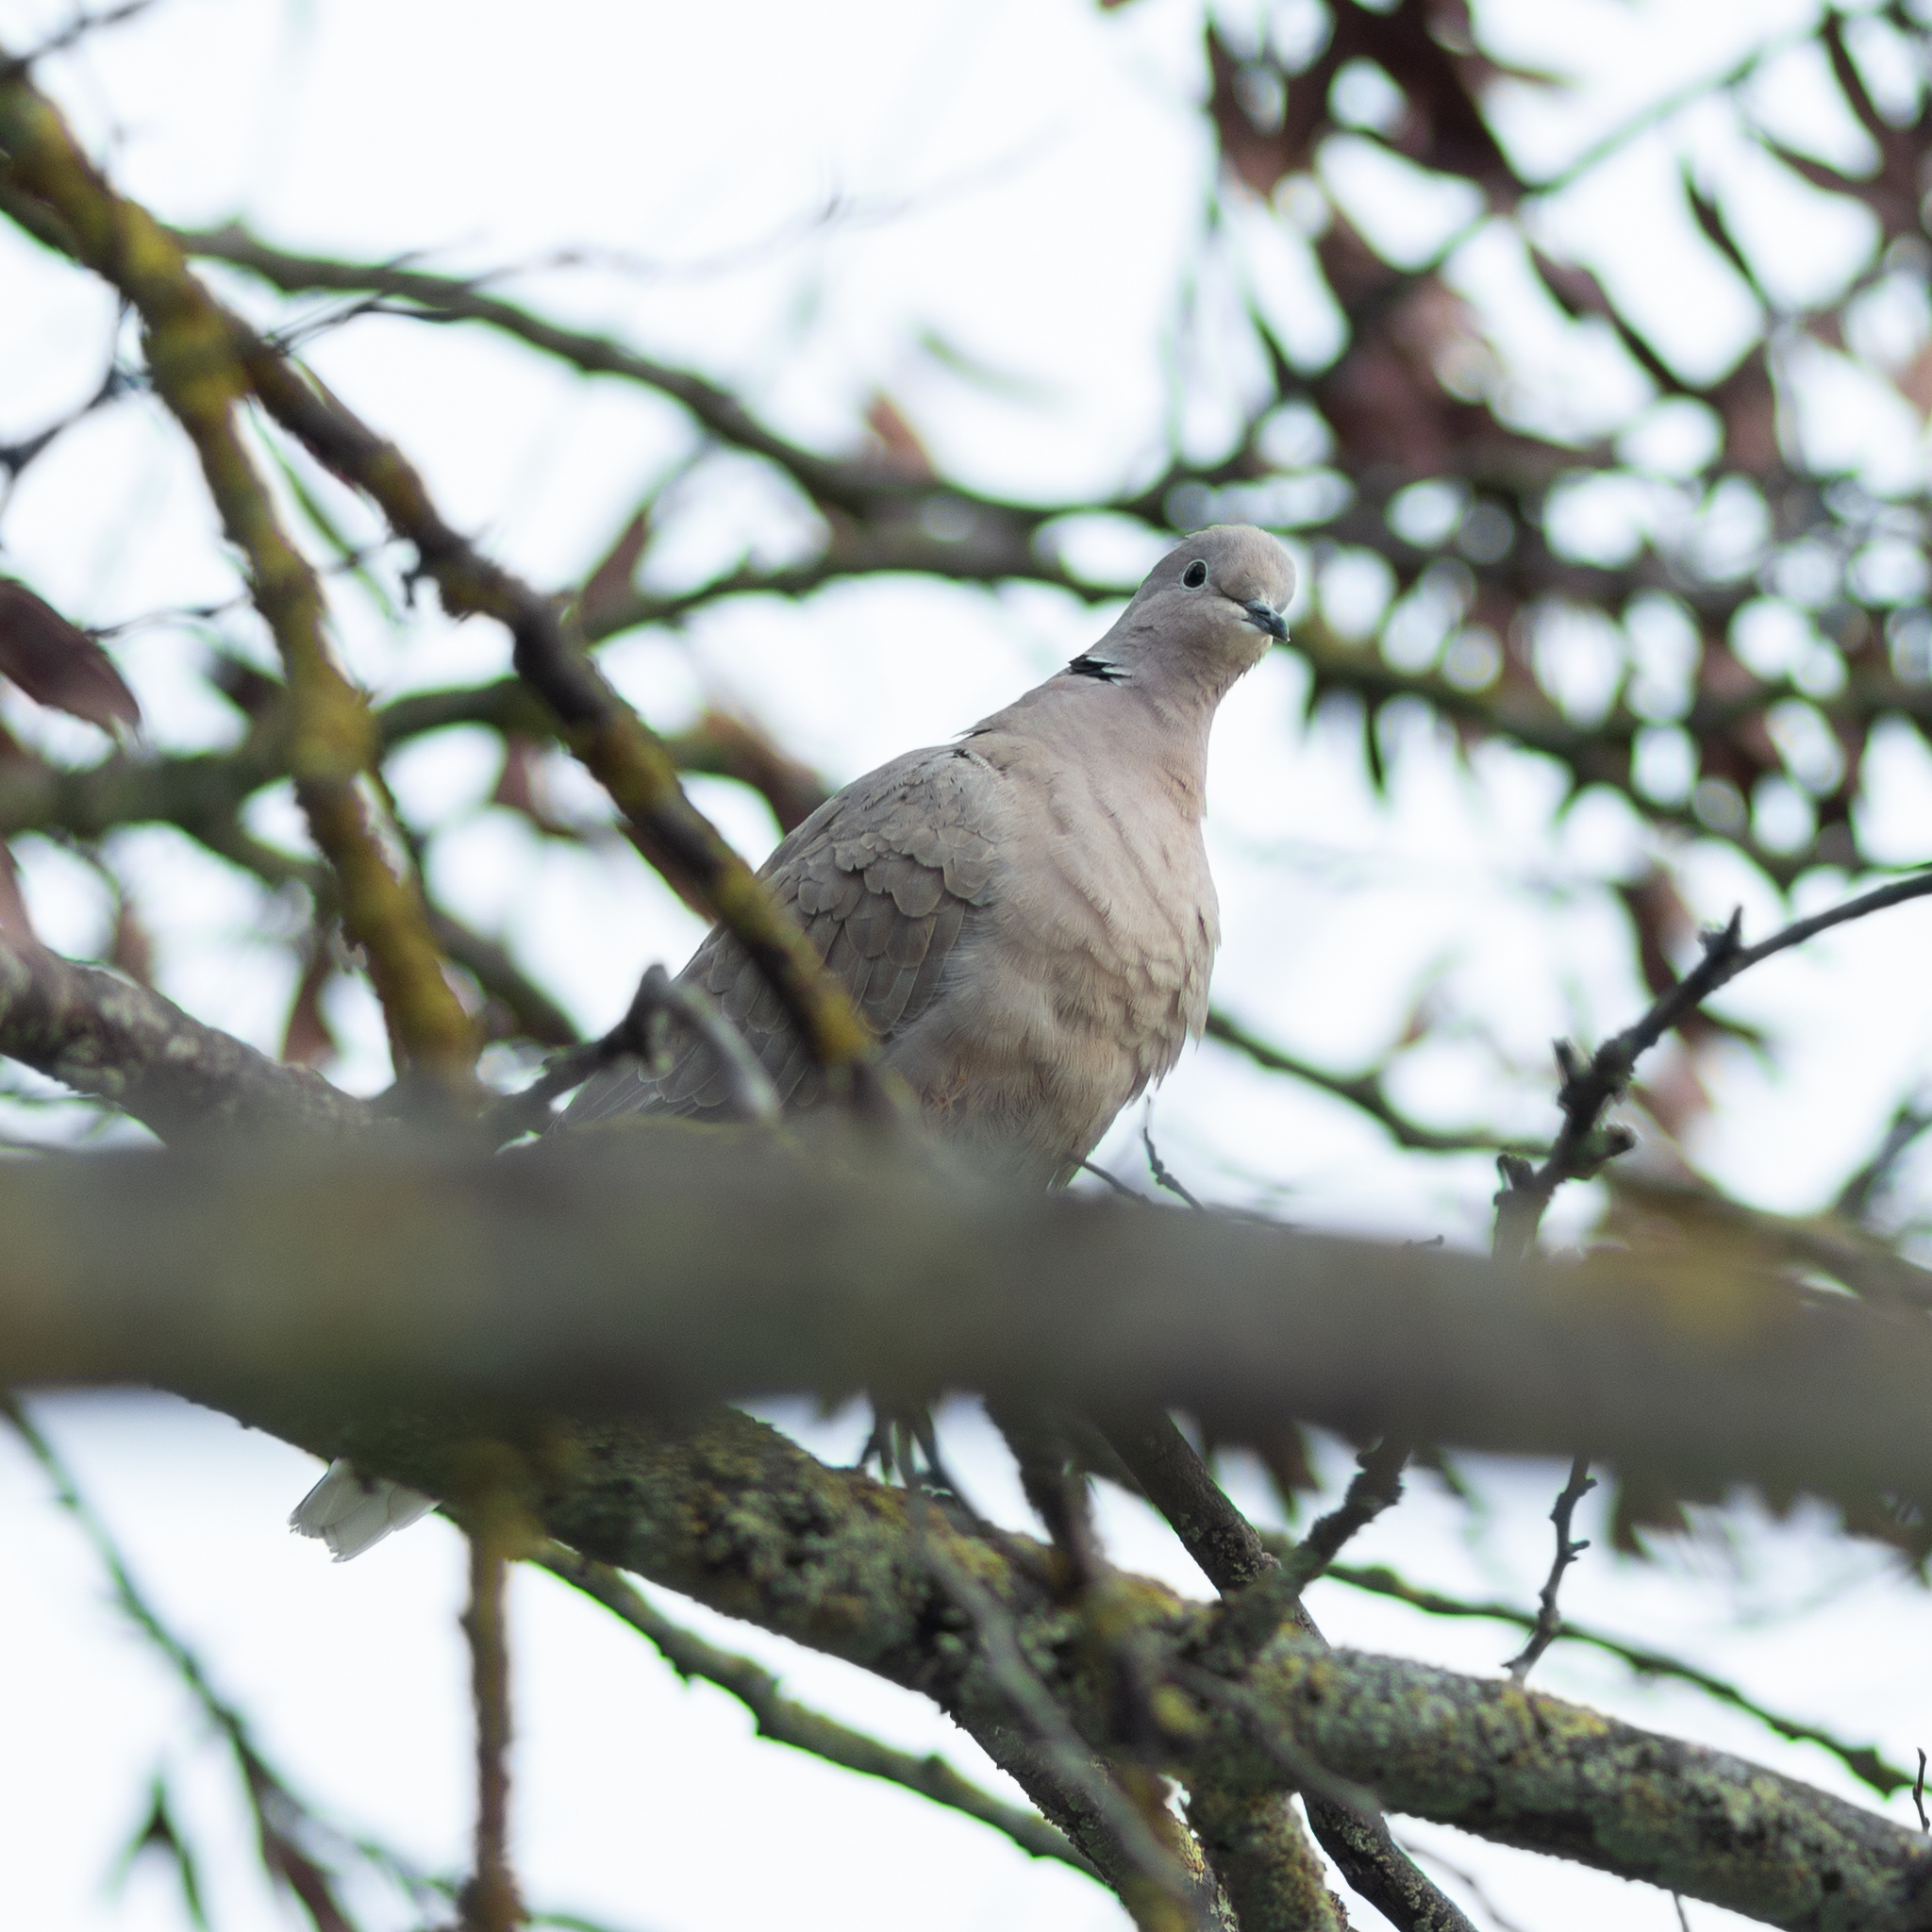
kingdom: Animalia
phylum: Chordata
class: Aves
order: Columbiformes
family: Columbidae
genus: Streptopelia
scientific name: Streptopelia decaocto
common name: Eurasian collared dove
